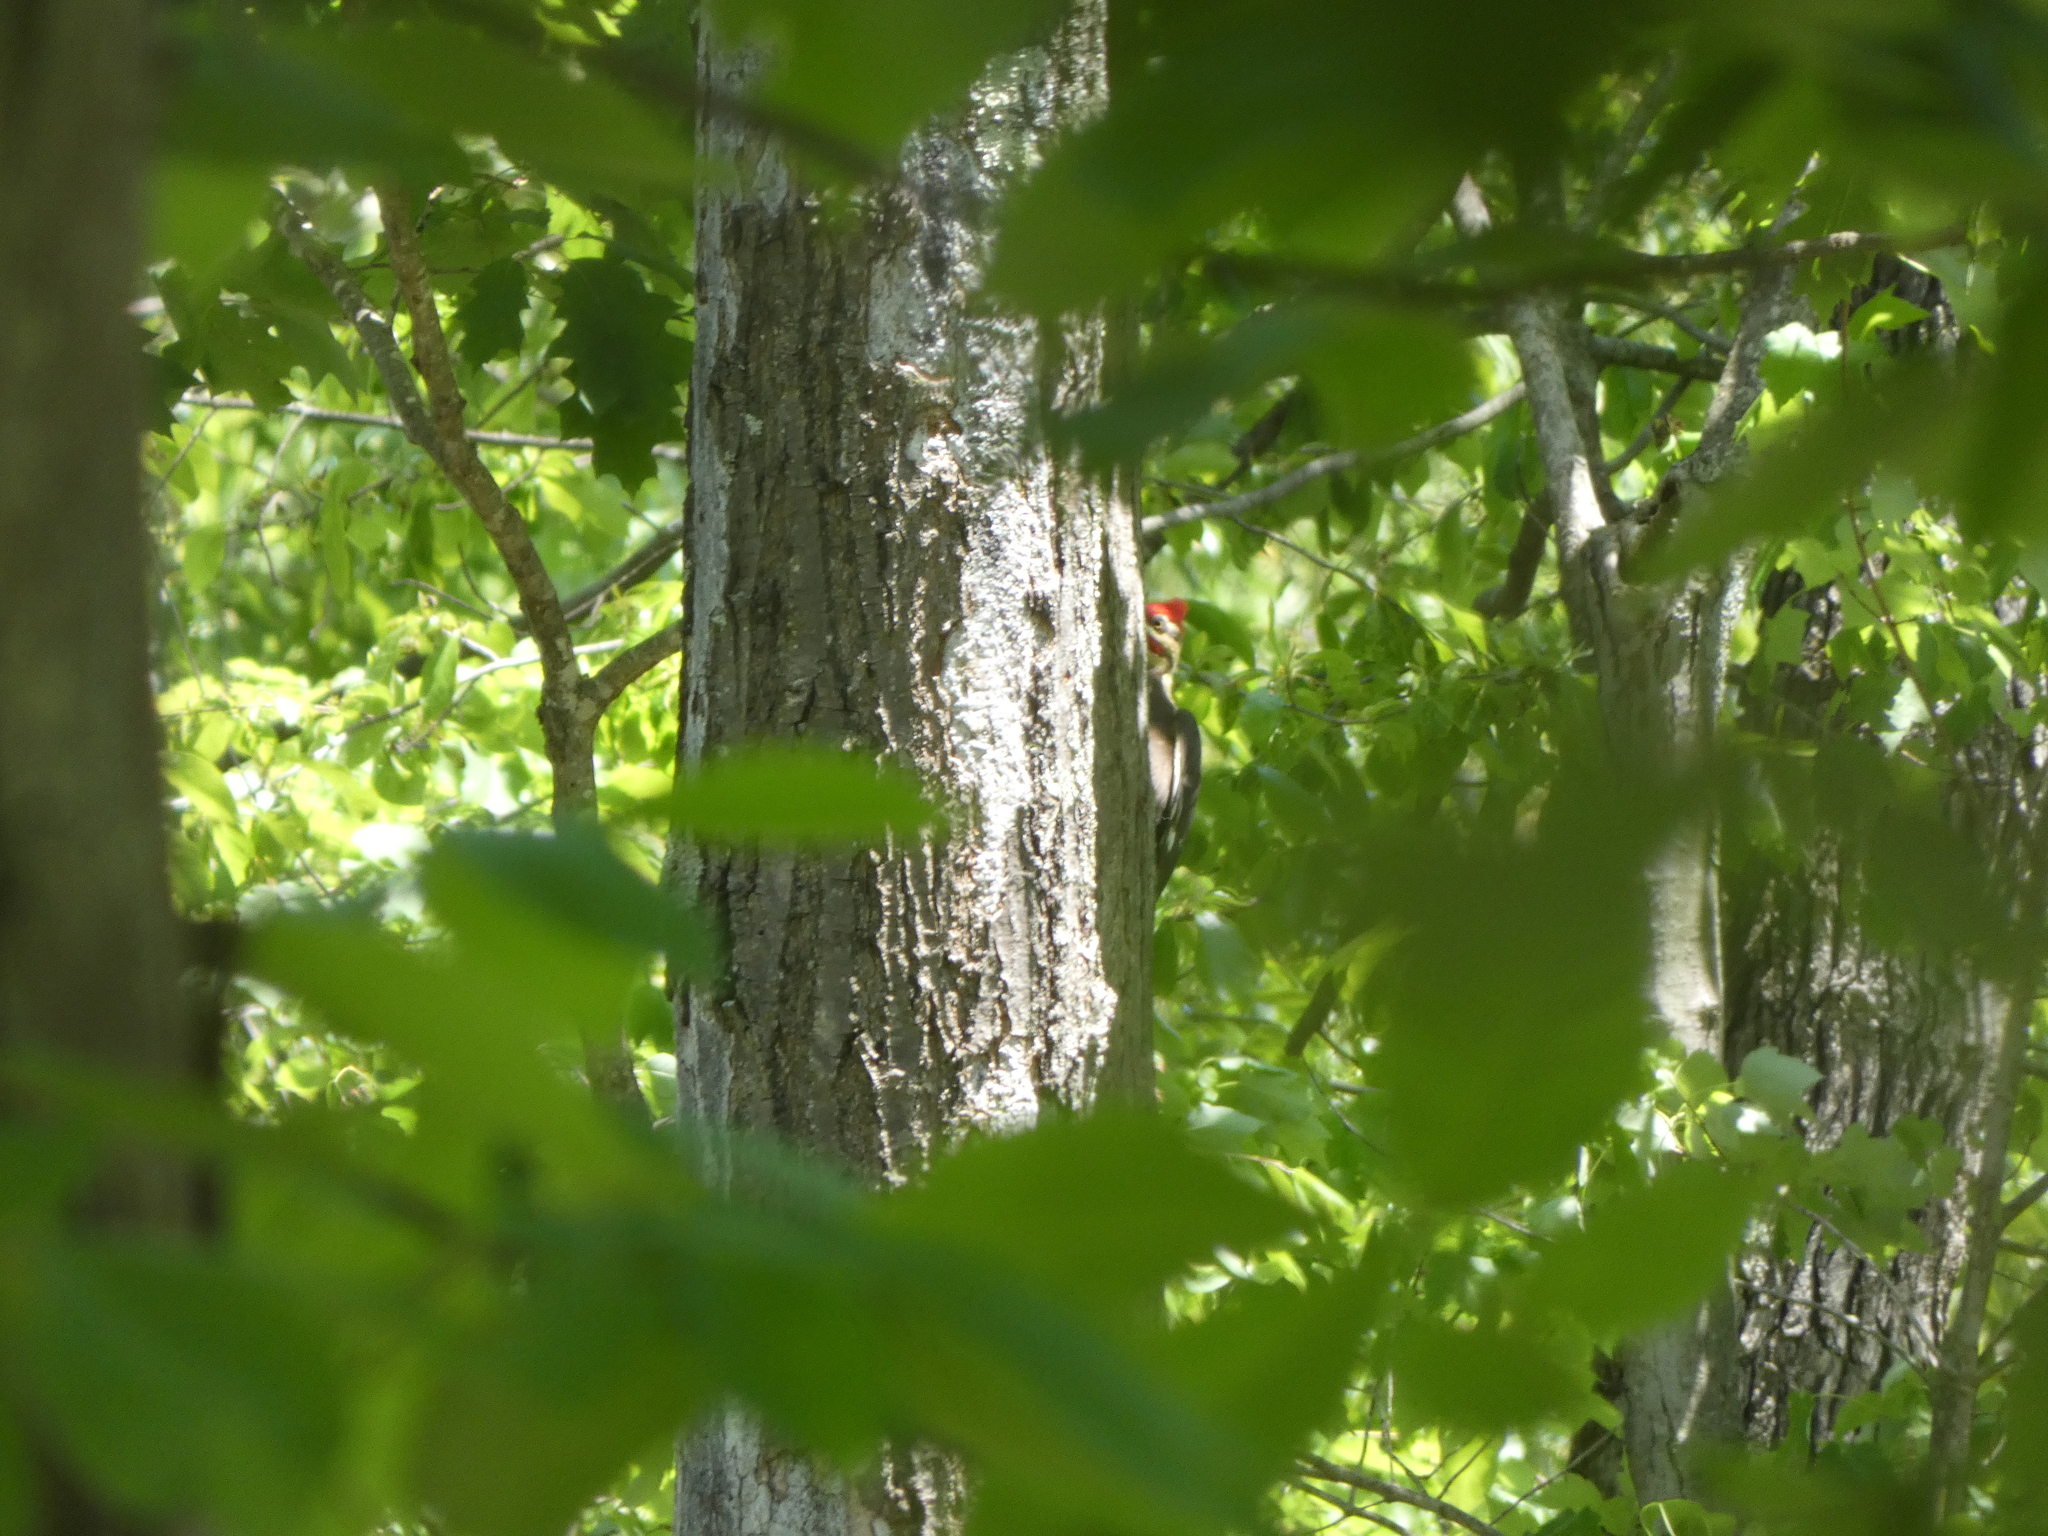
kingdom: Animalia
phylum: Chordata
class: Aves
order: Piciformes
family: Picidae
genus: Dryocopus
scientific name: Dryocopus pileatus
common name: Pileated woodpecker
